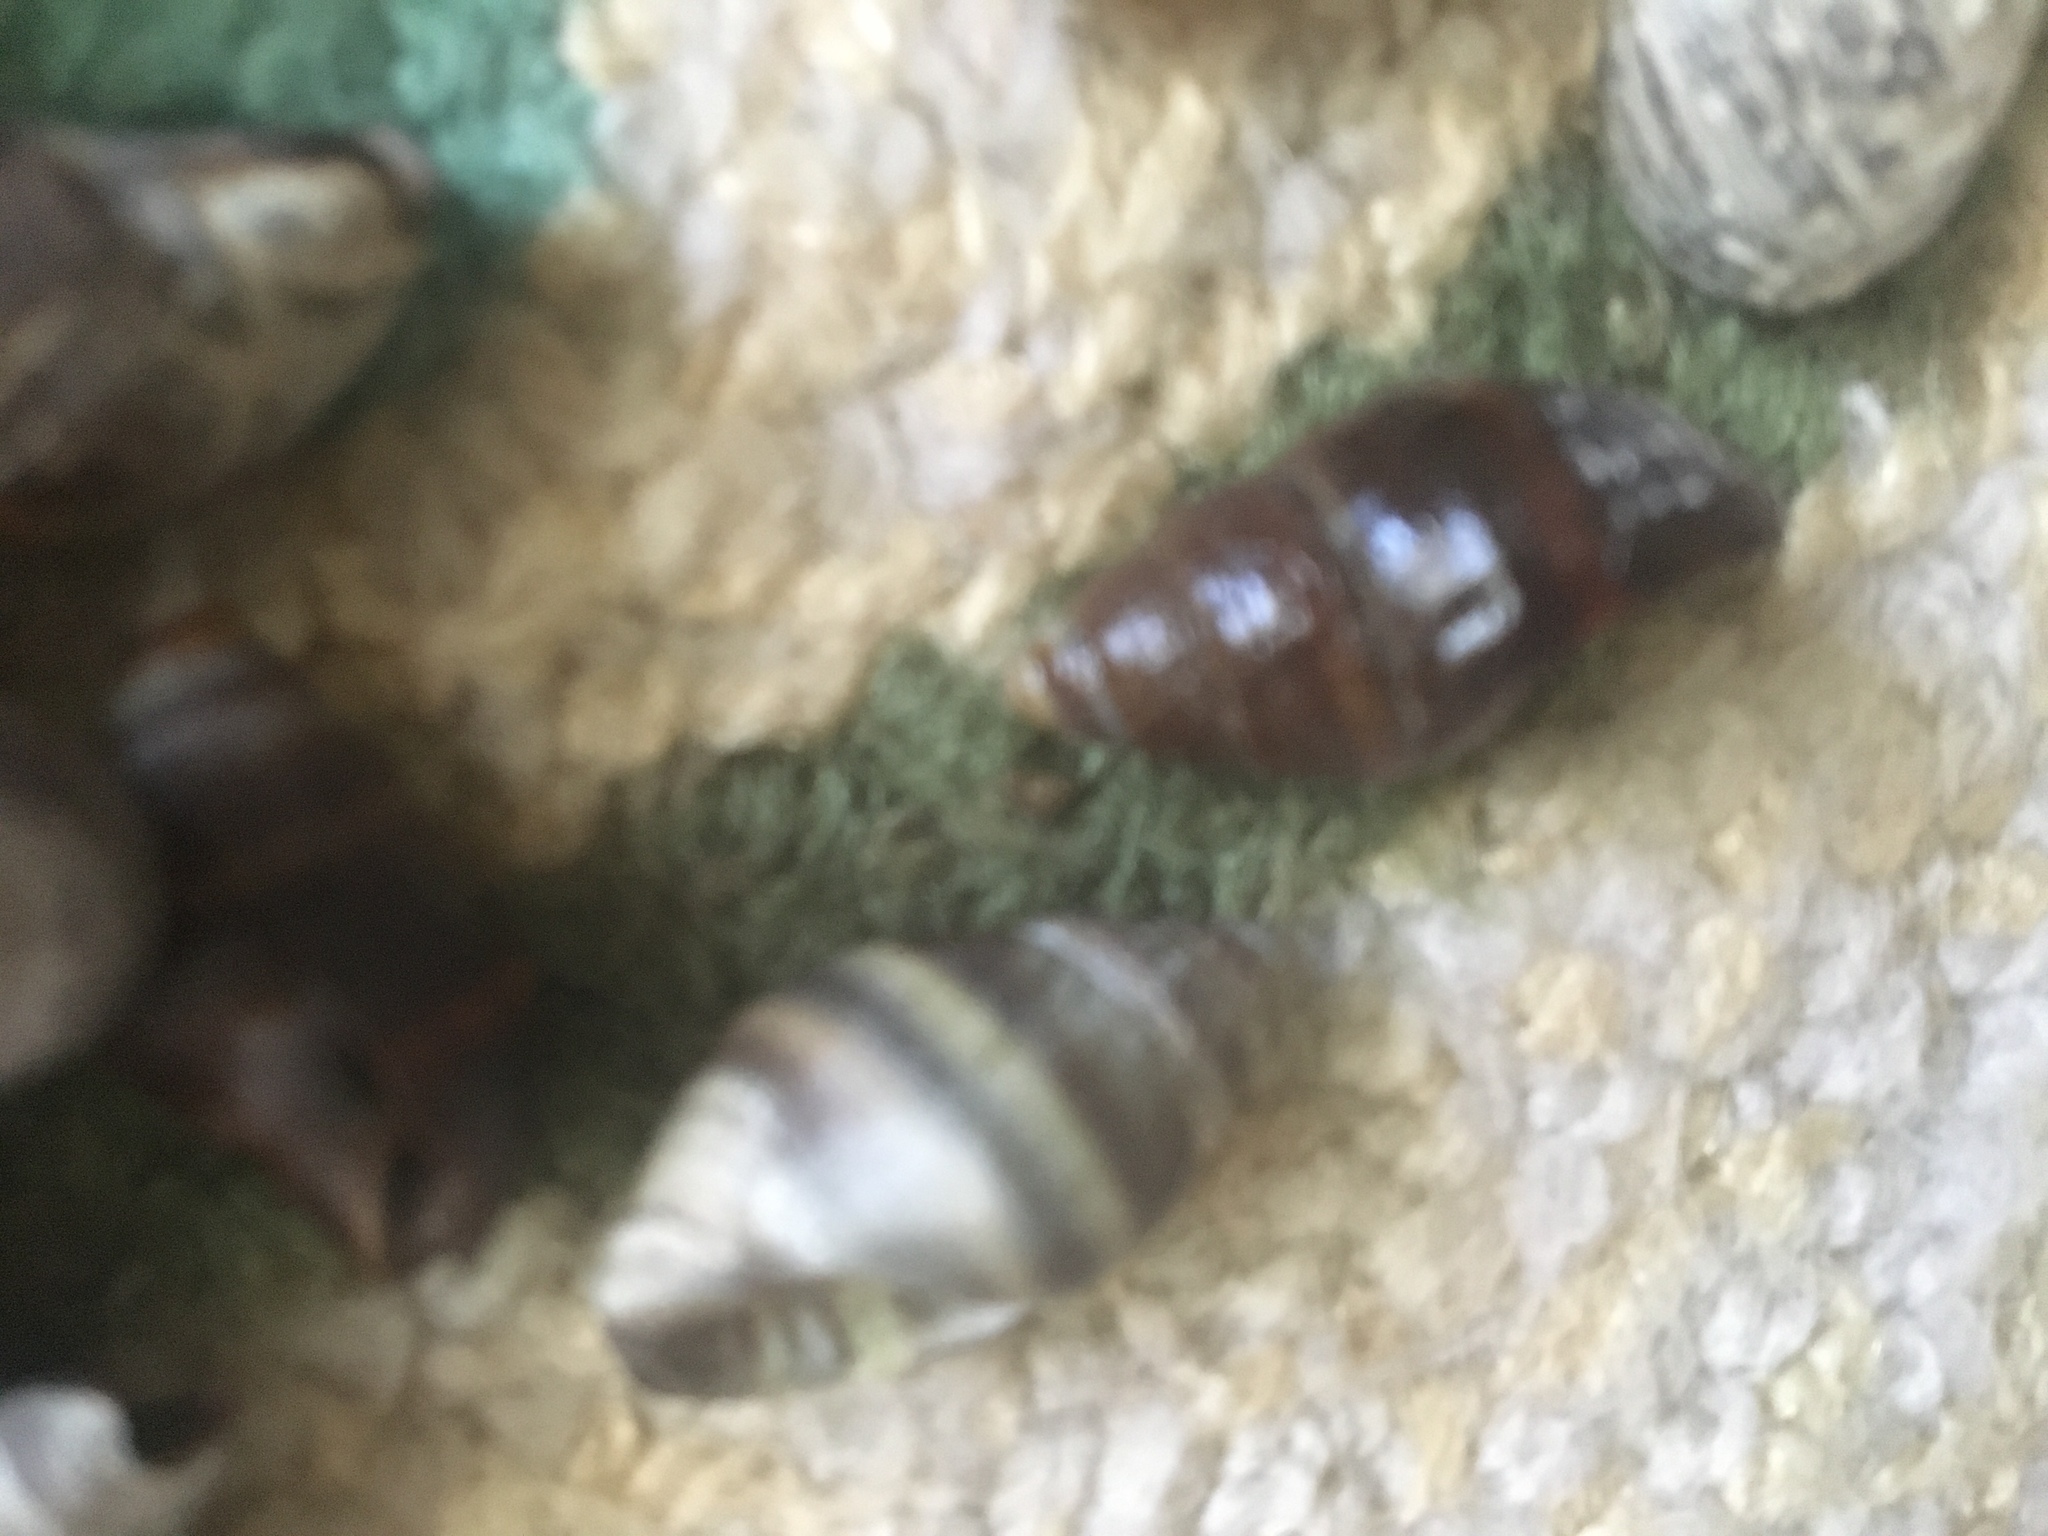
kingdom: Animalia
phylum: Mollusca
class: Gastropoda
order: Neogastropoda
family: Nassariidae
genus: Ilyanassa
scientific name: Ilyanassa obsoleta
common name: Eastern mudsnail
